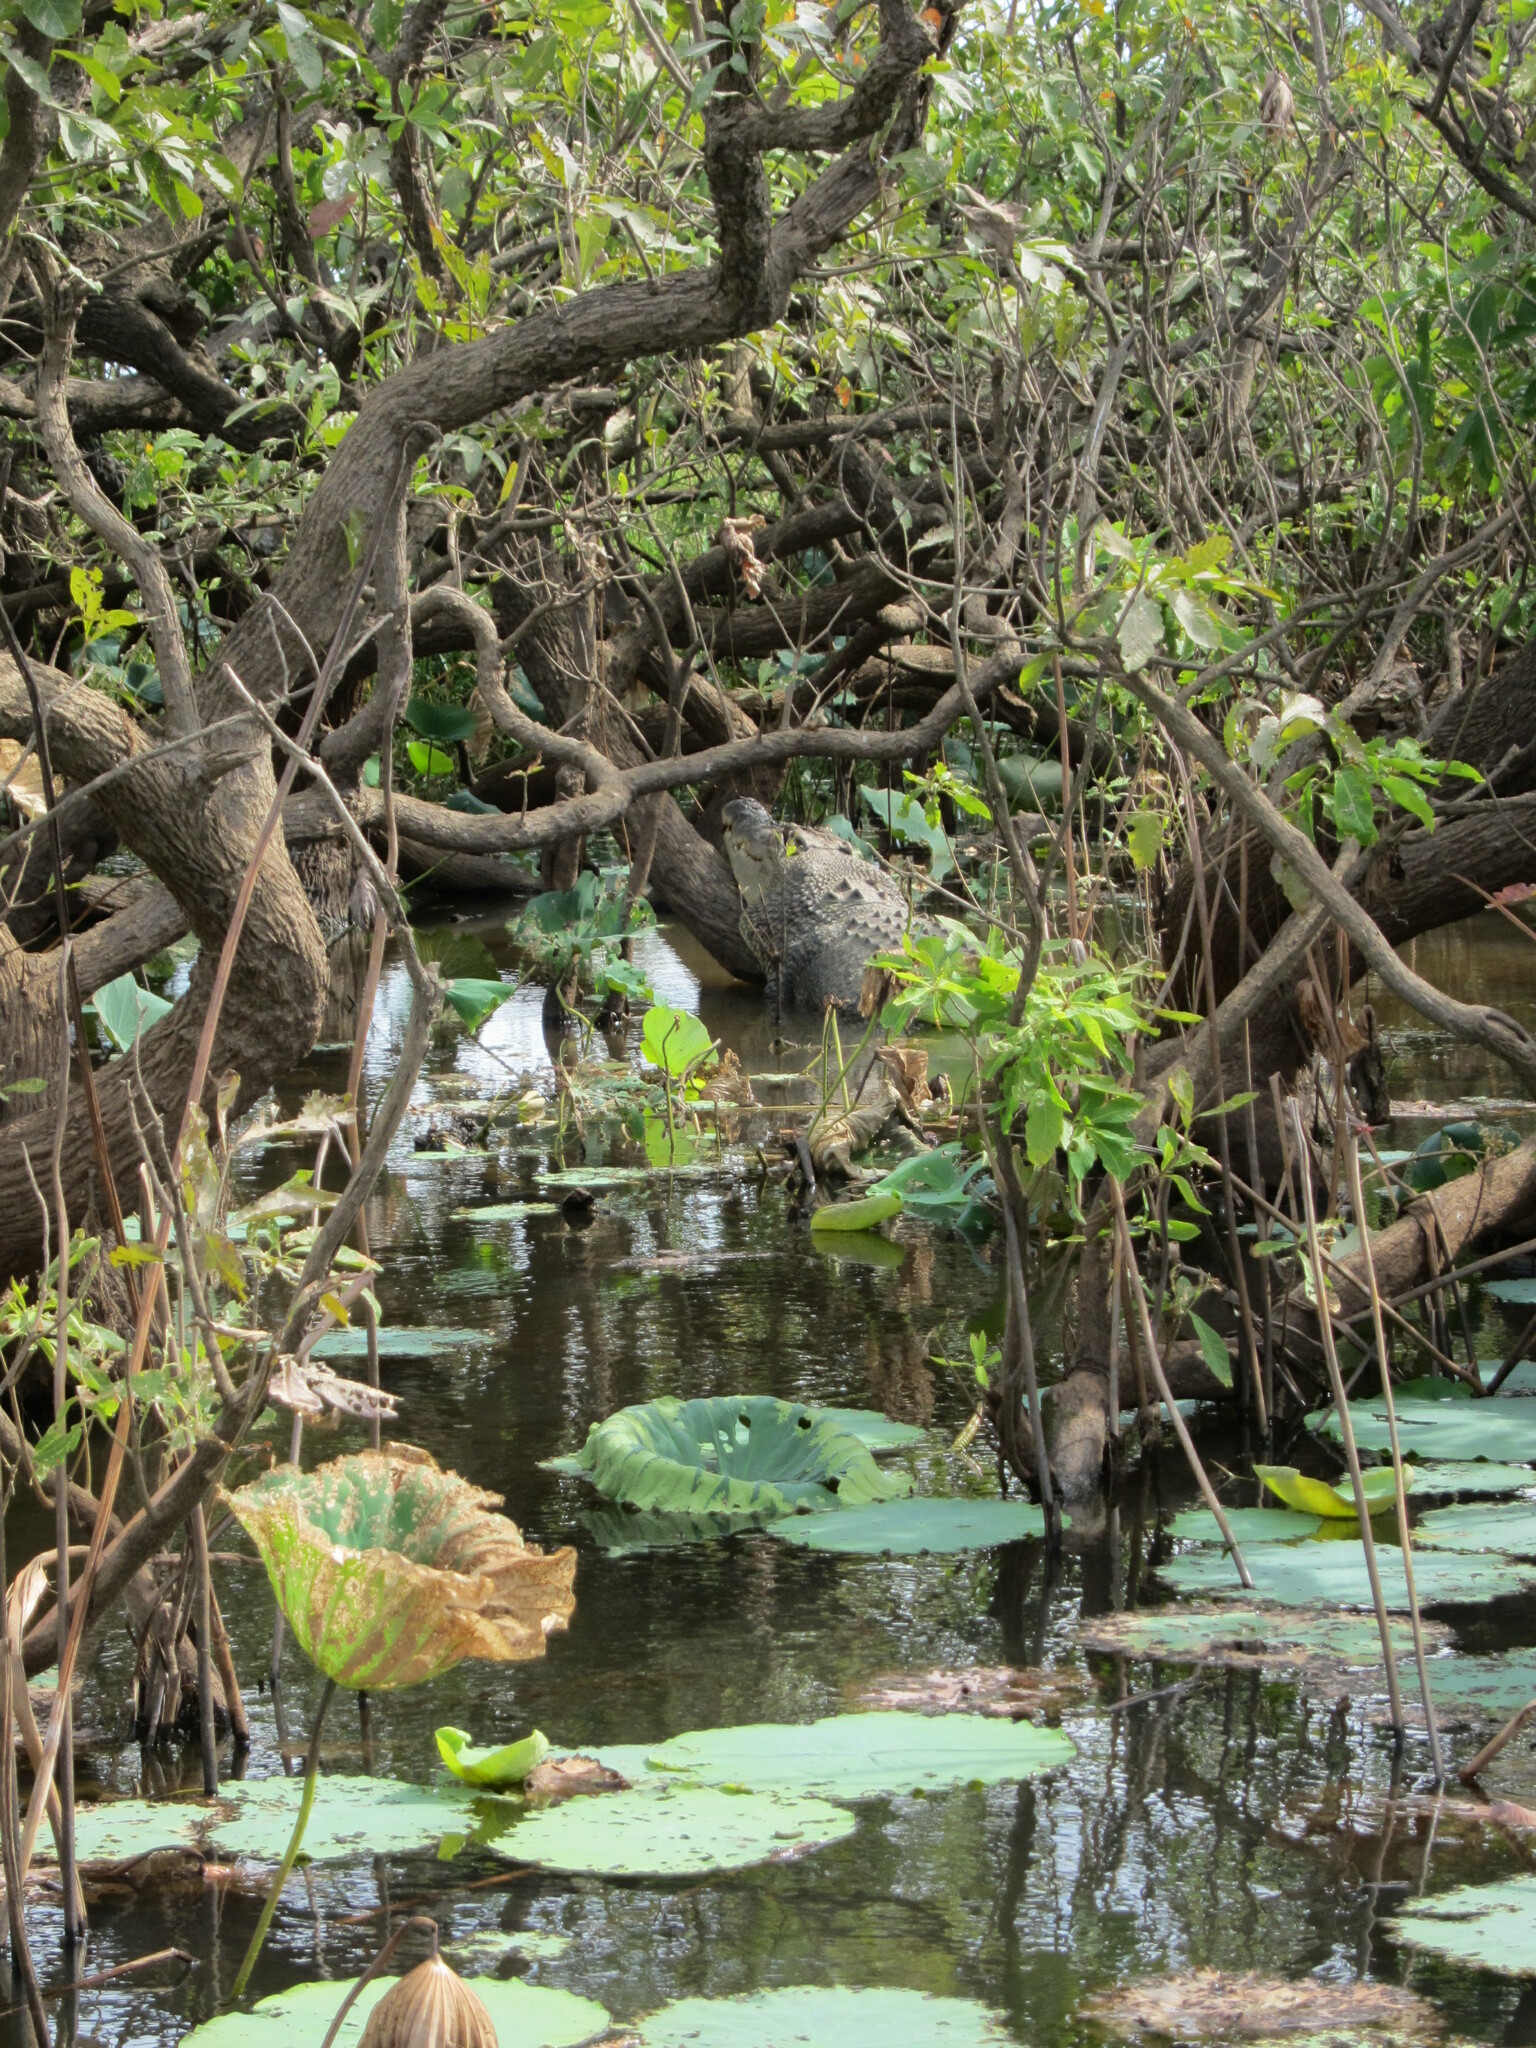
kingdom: Animalia
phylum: Chordata
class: Crocodylia
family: Crocodylidae
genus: Crocodylus
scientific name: Crocodylus porosus
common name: Saltwater crocodile
